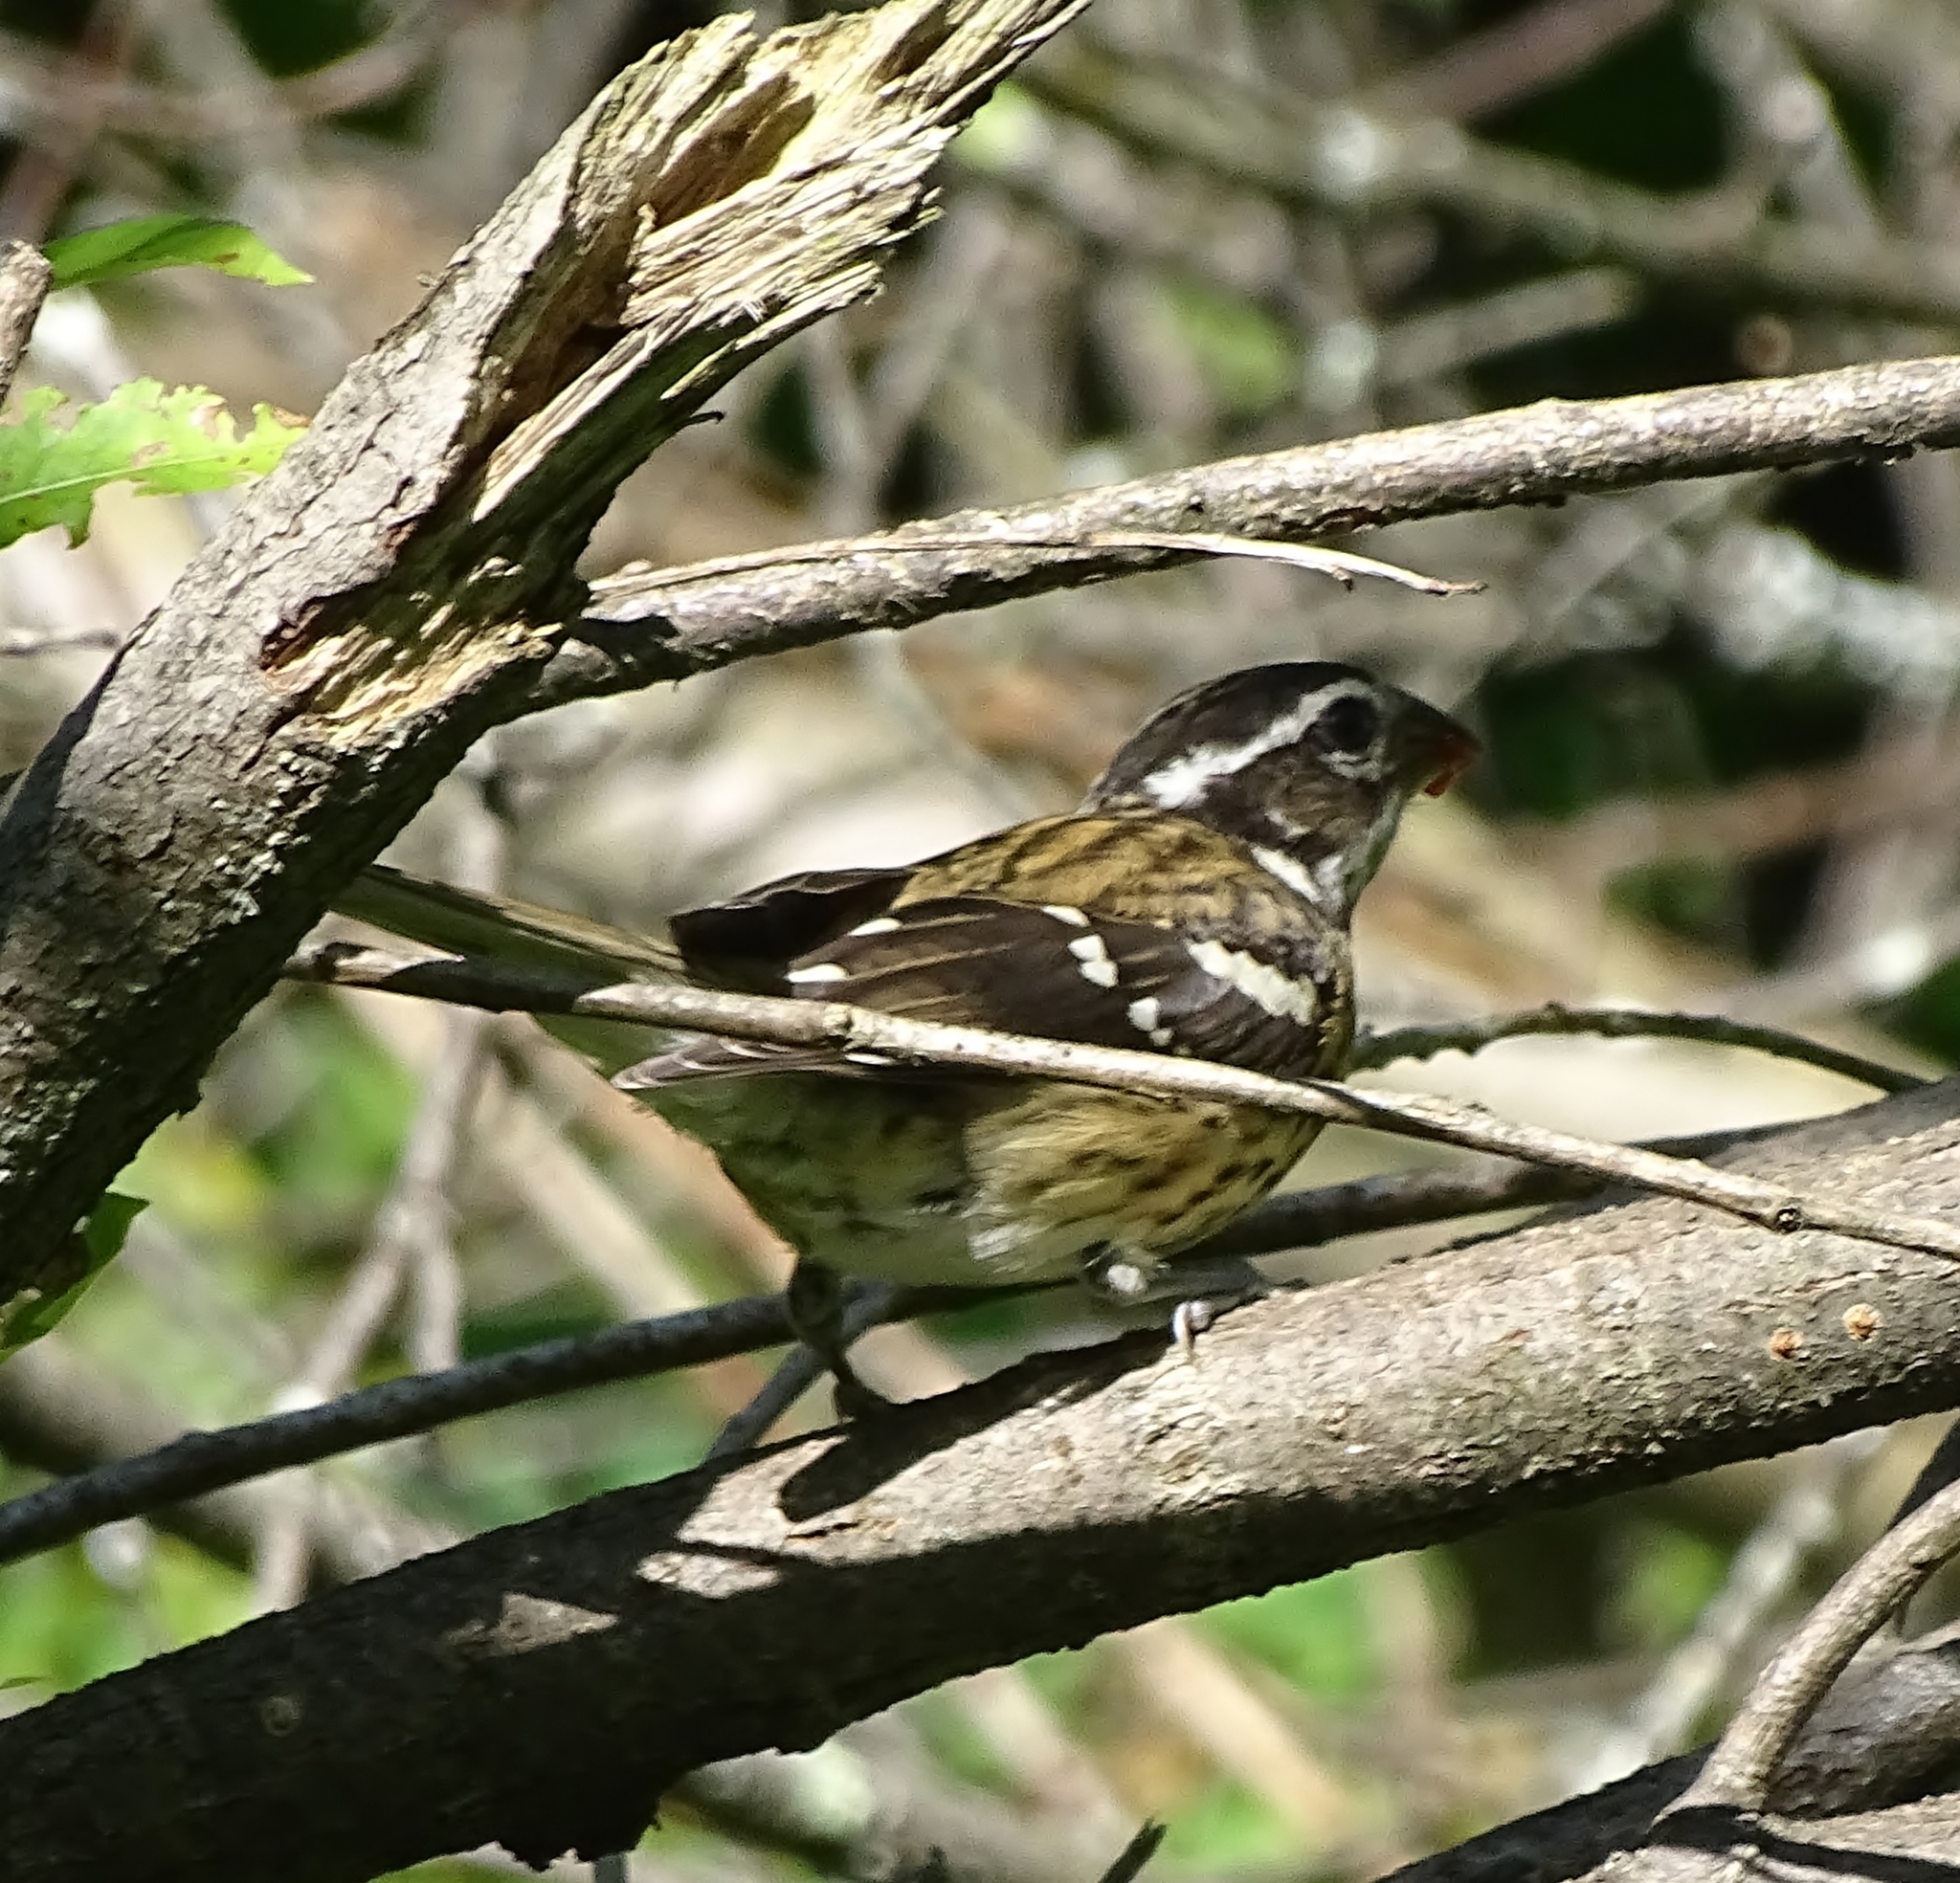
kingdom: Animalia
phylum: Chordata
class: Aves
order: Passeriformes
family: Cardinalidae
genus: Pheucticus
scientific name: Pheucticus ludovicianus
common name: Rose-breasted grosbeak
